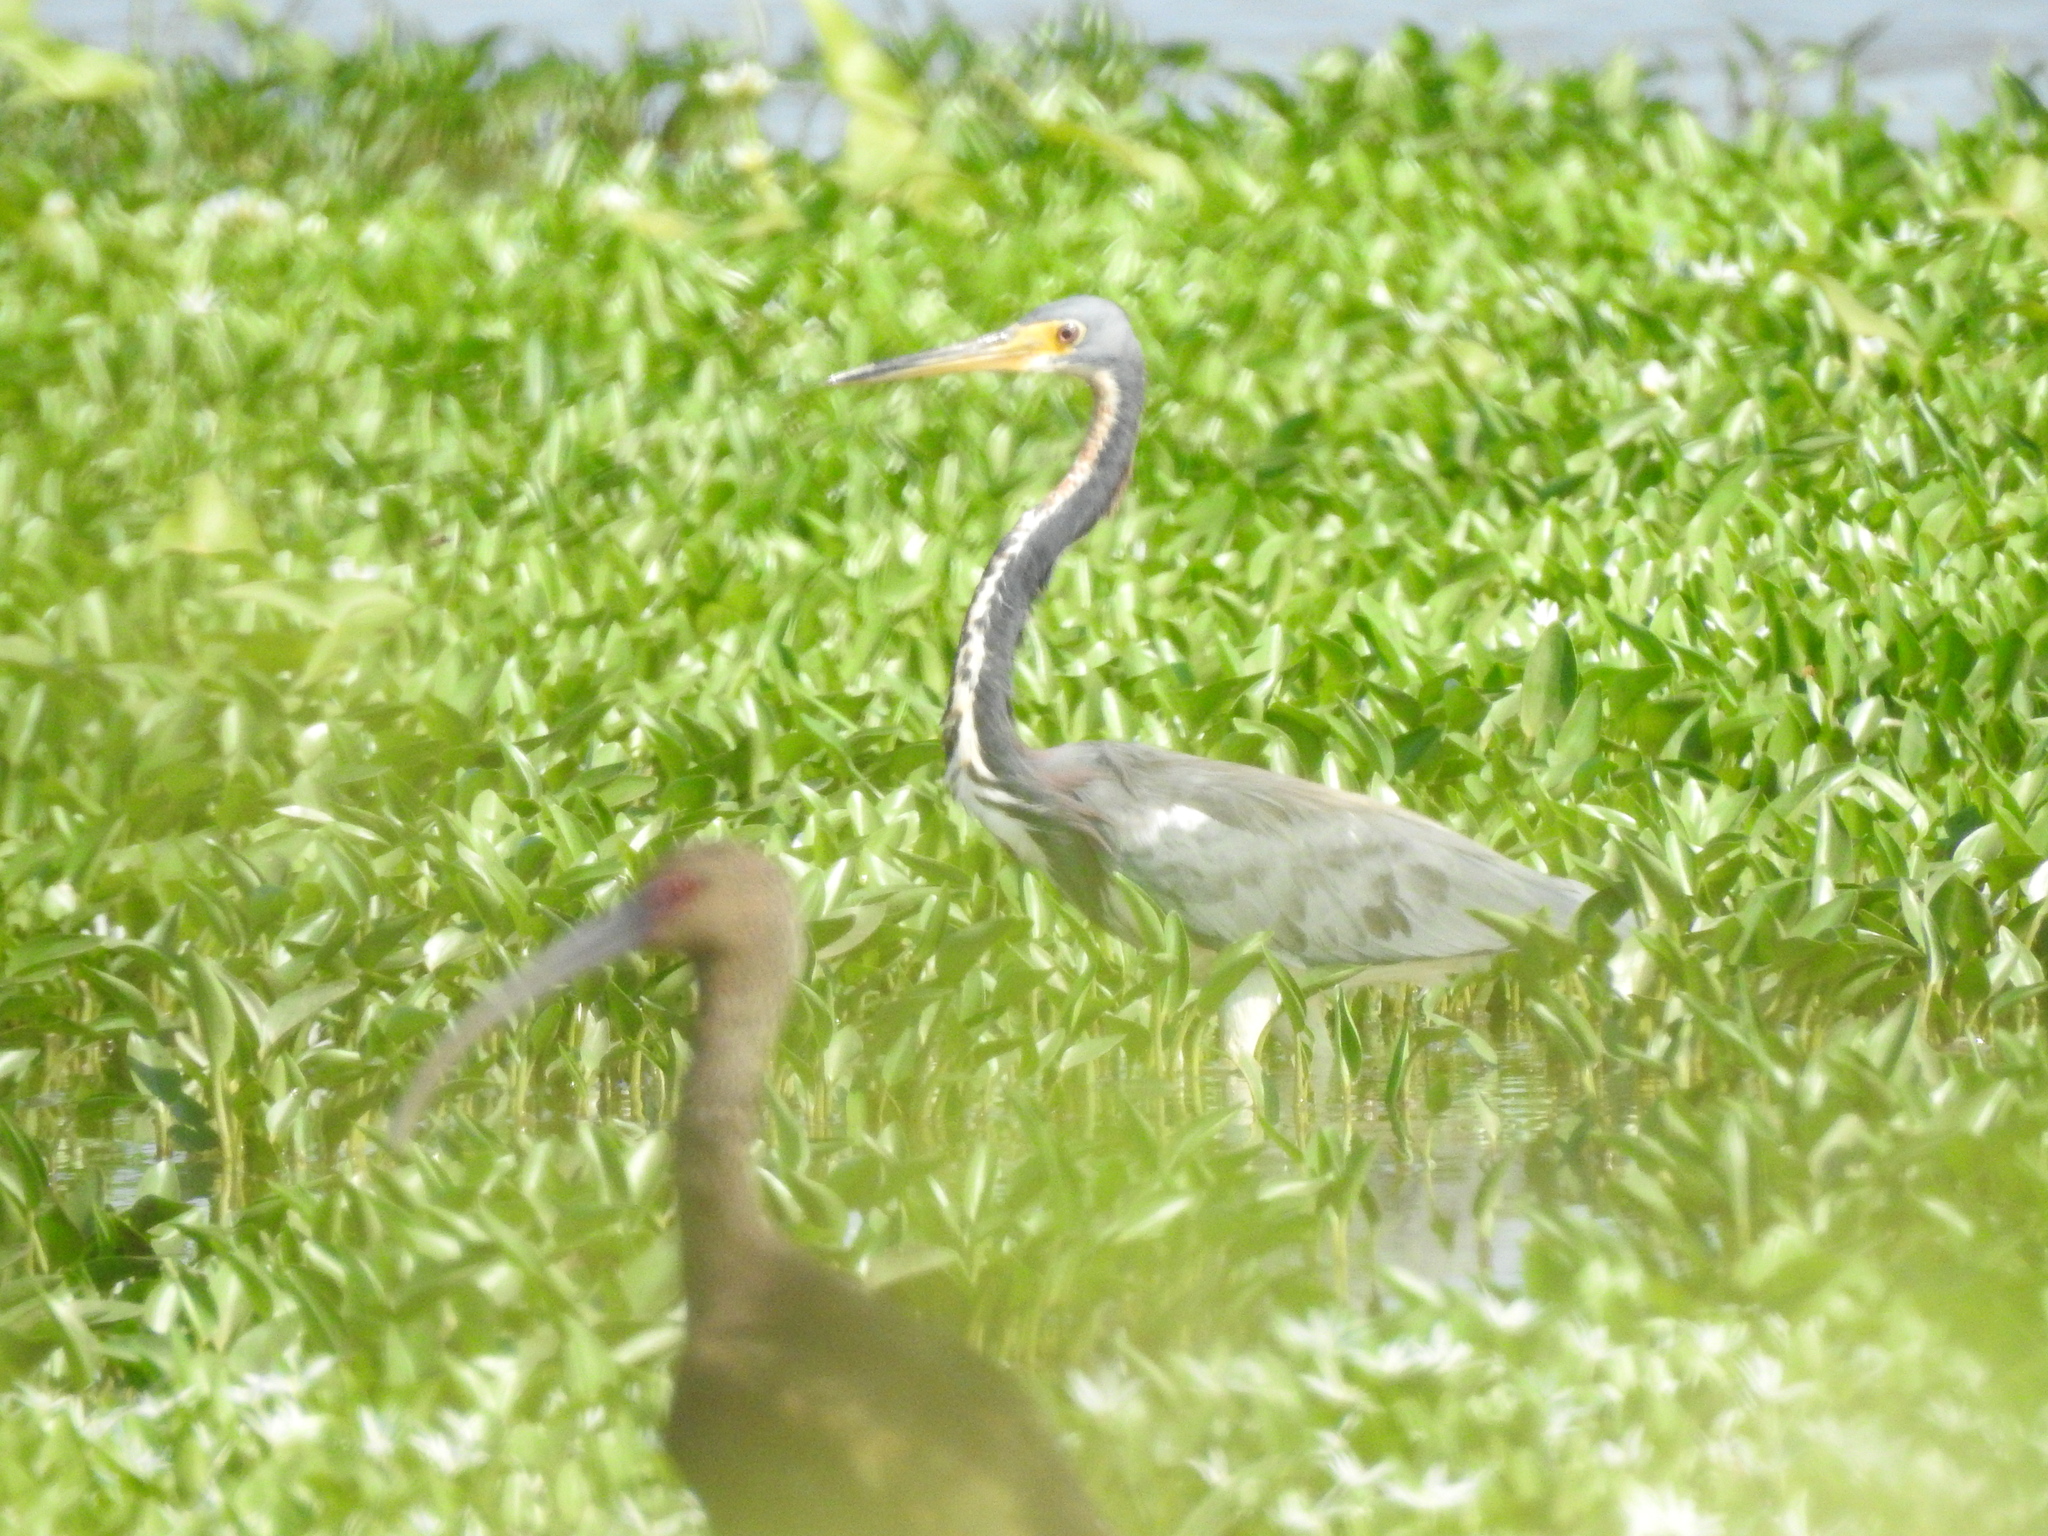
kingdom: Animalia
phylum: Chordata
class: Aves
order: Pelecaniformes
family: Ardeidae
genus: Egretta
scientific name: Egretta tricolor
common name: Tricolored heron
